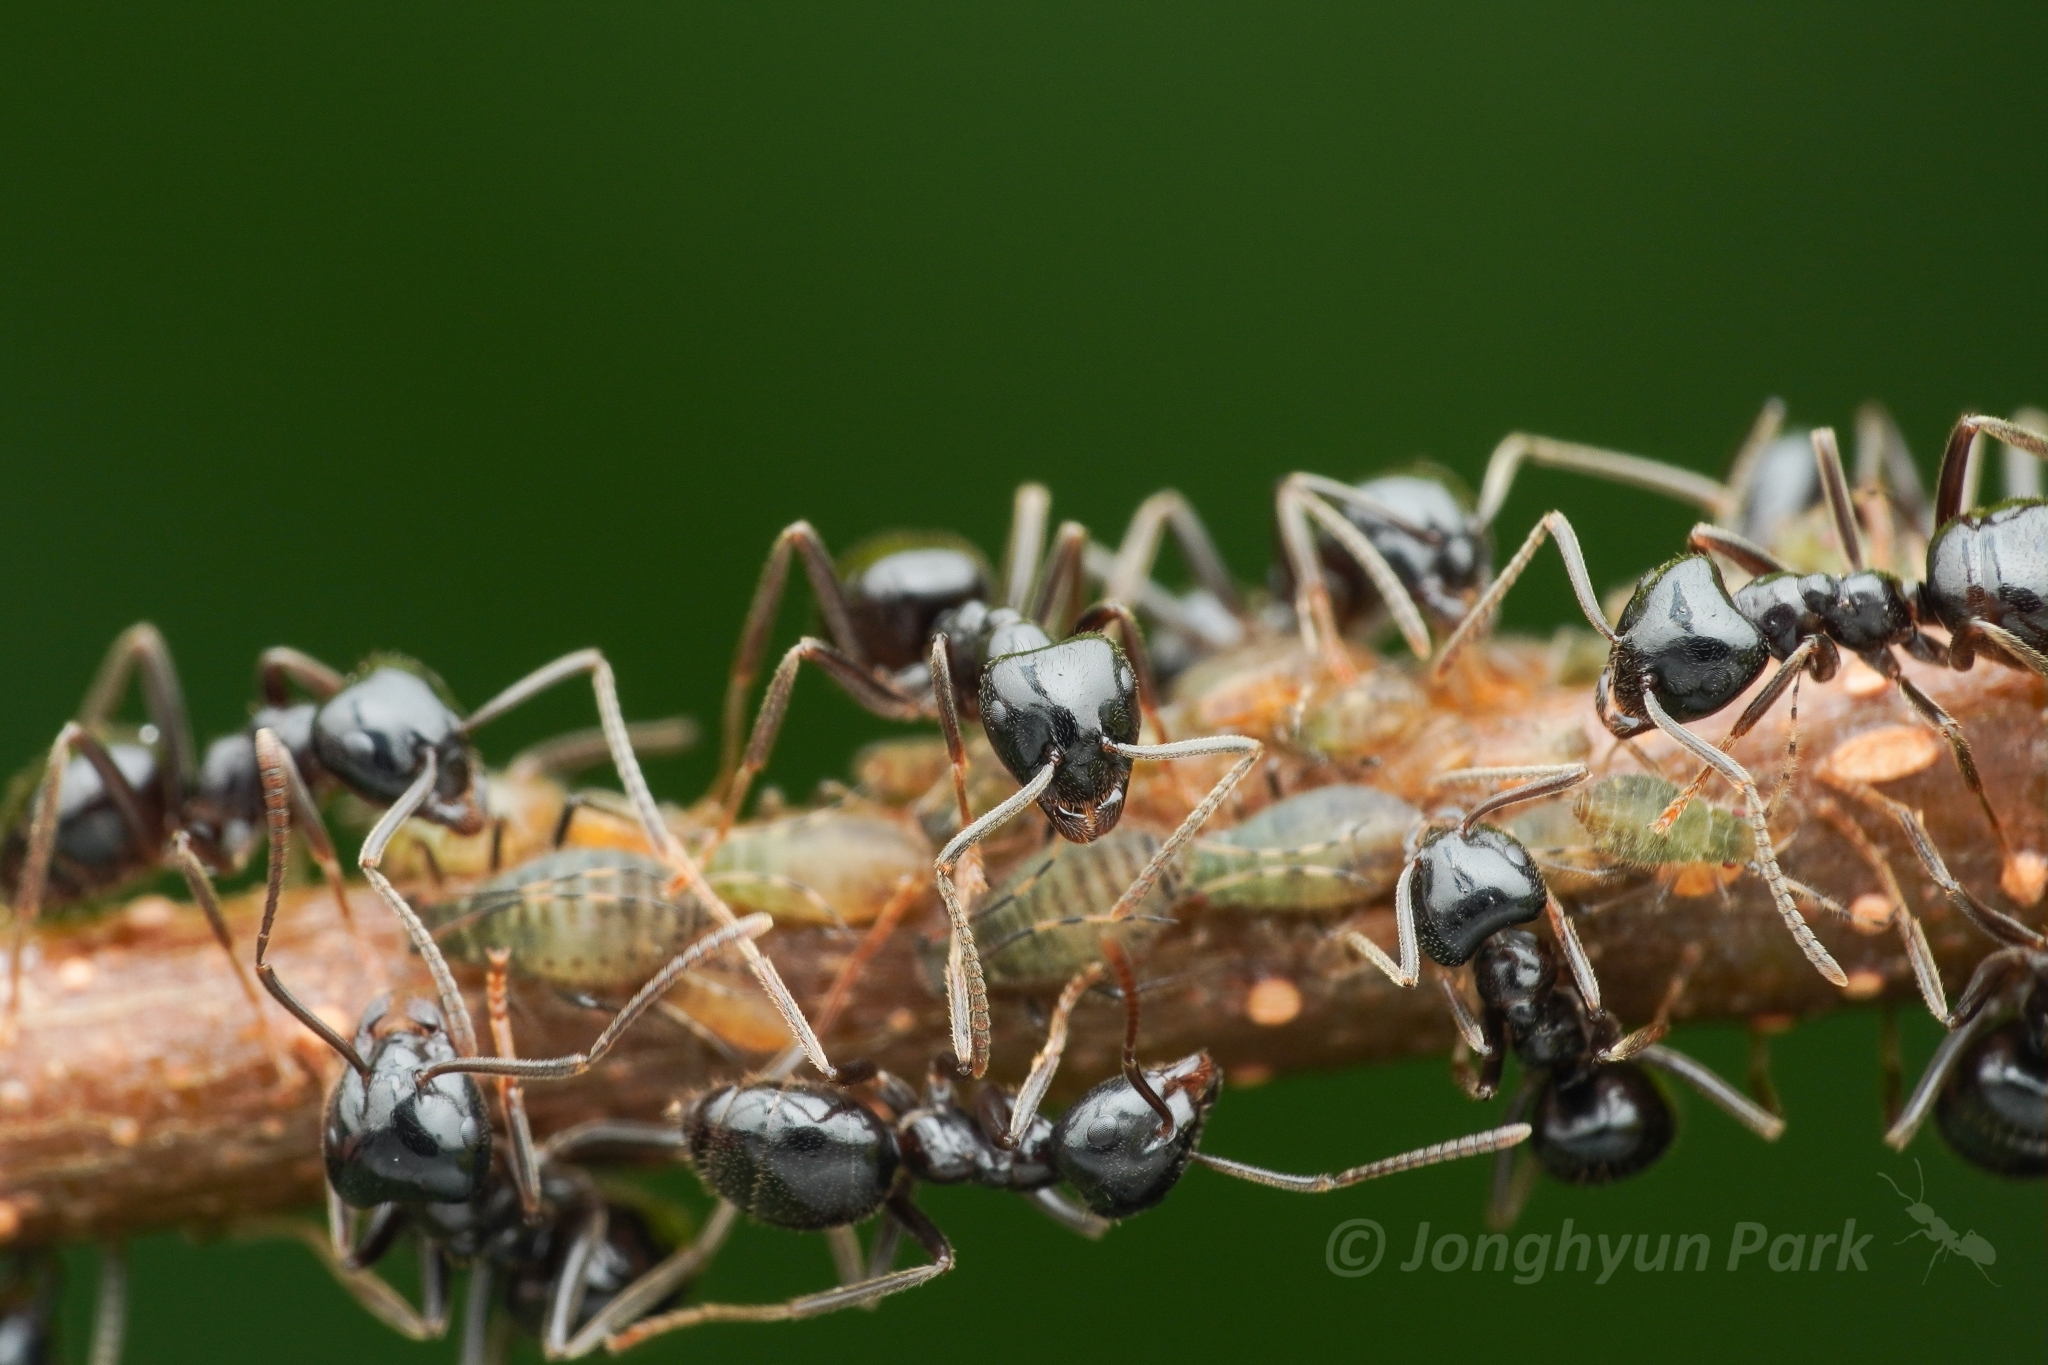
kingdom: Animalia
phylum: Arthropoda
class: Insecta
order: Hymenoptera
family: Formicidae
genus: Lasius
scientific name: Lasius
